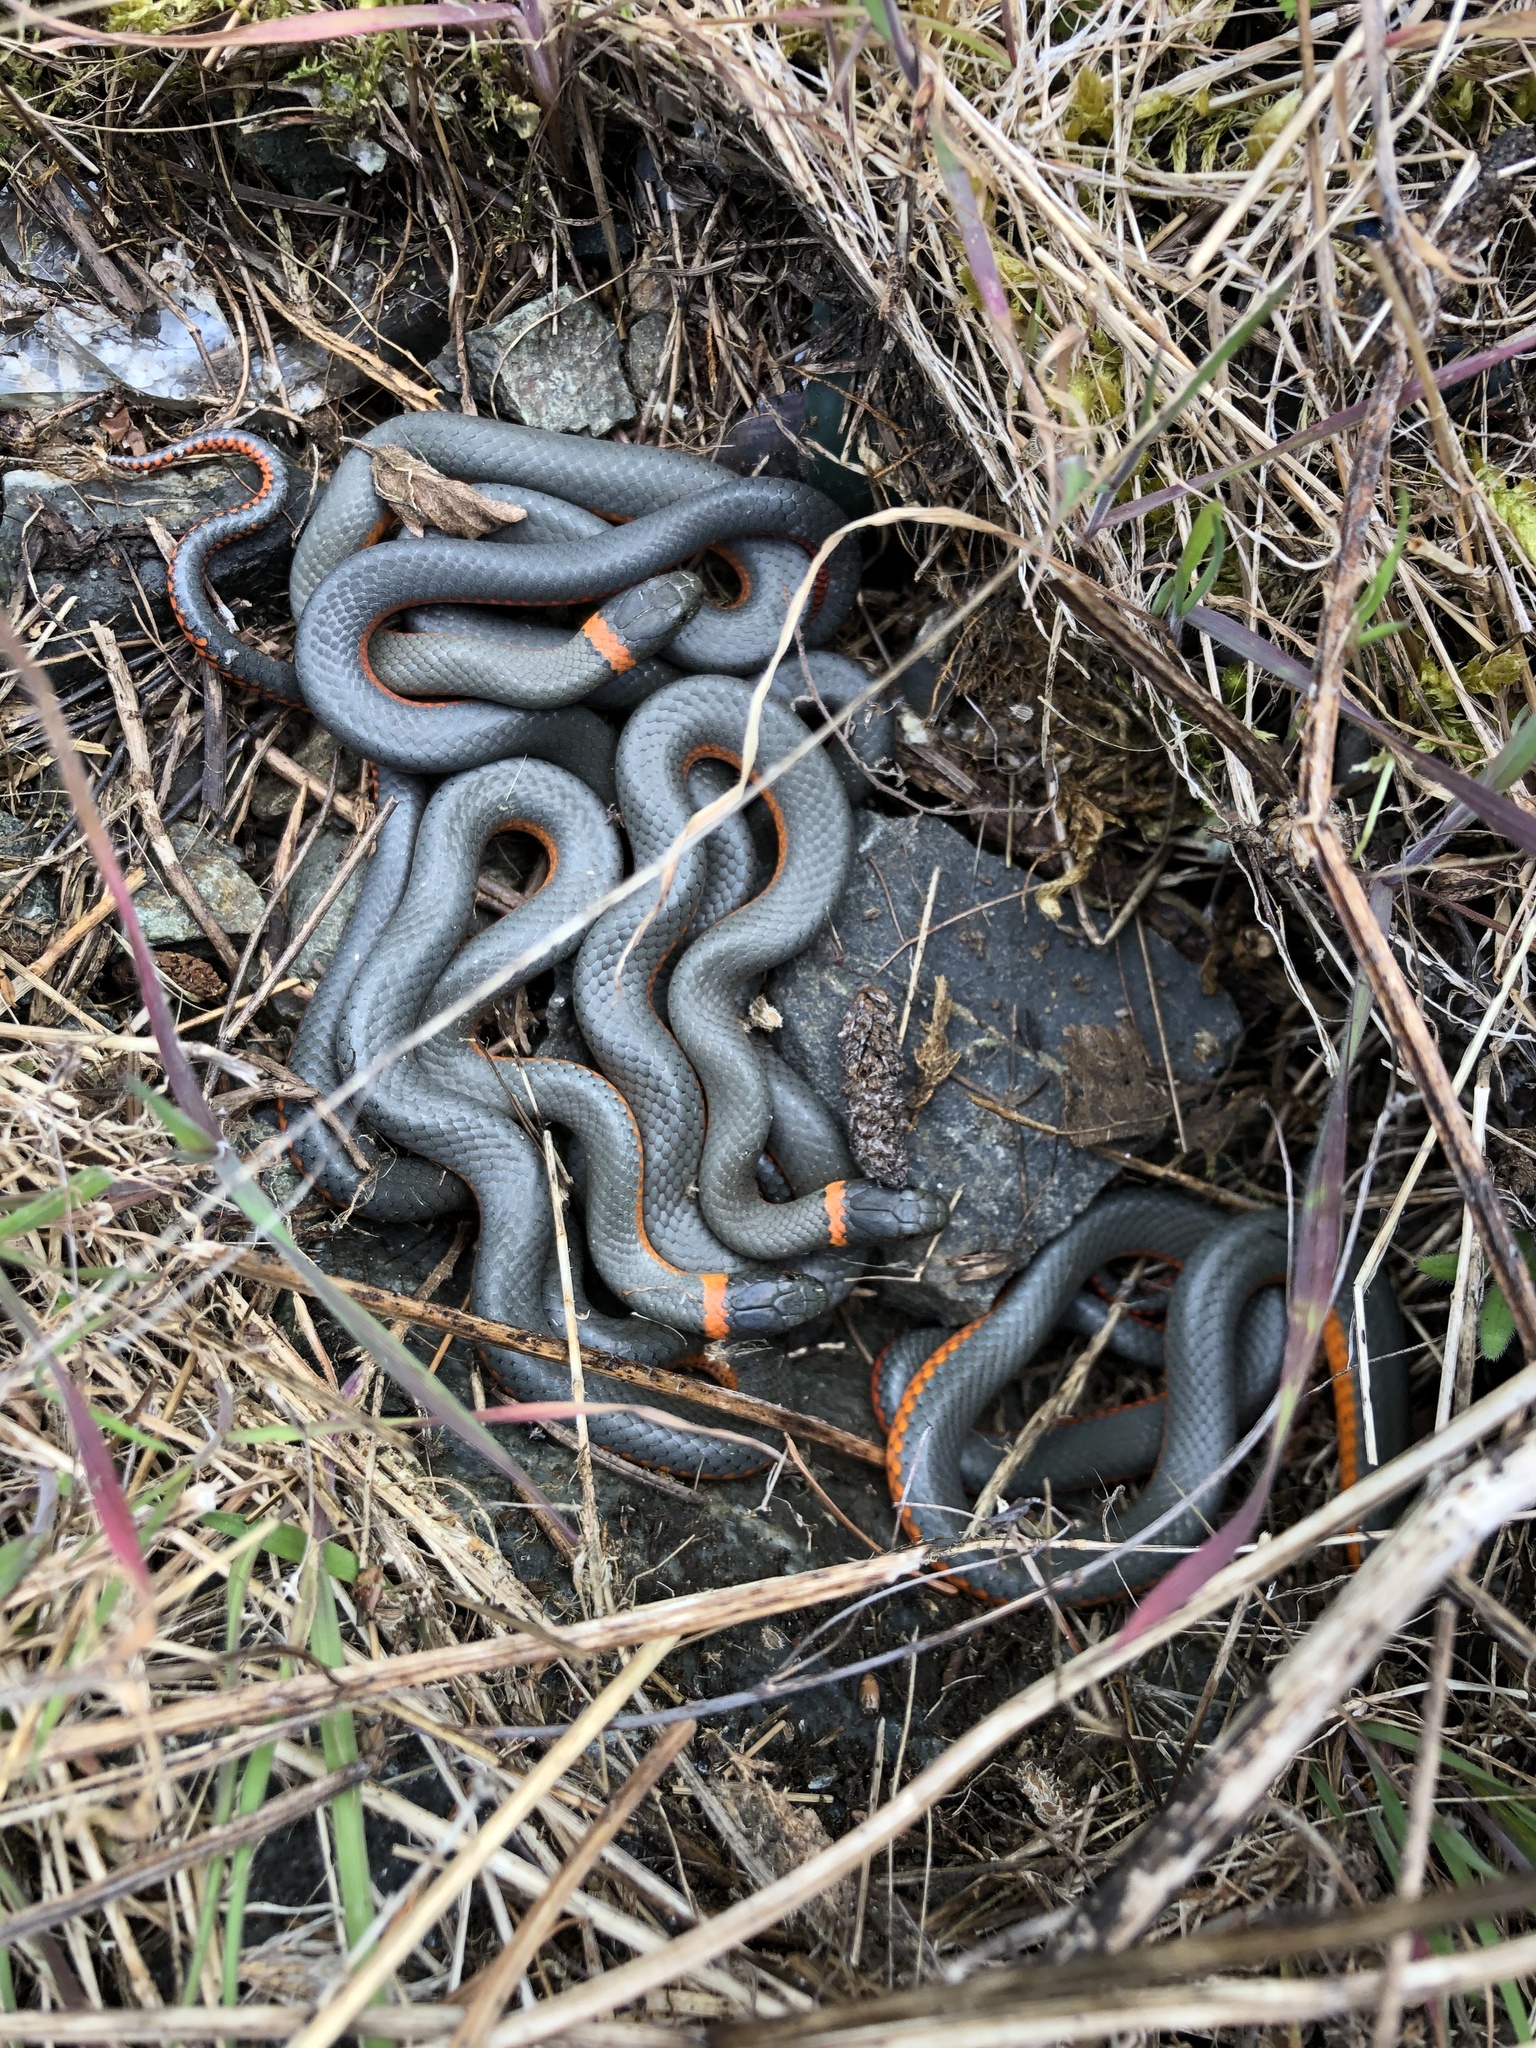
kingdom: Animalia
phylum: Chordata
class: Squamata
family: Colubridae
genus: Diadophis
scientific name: Diadophis punctatus
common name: Ringneck snake
